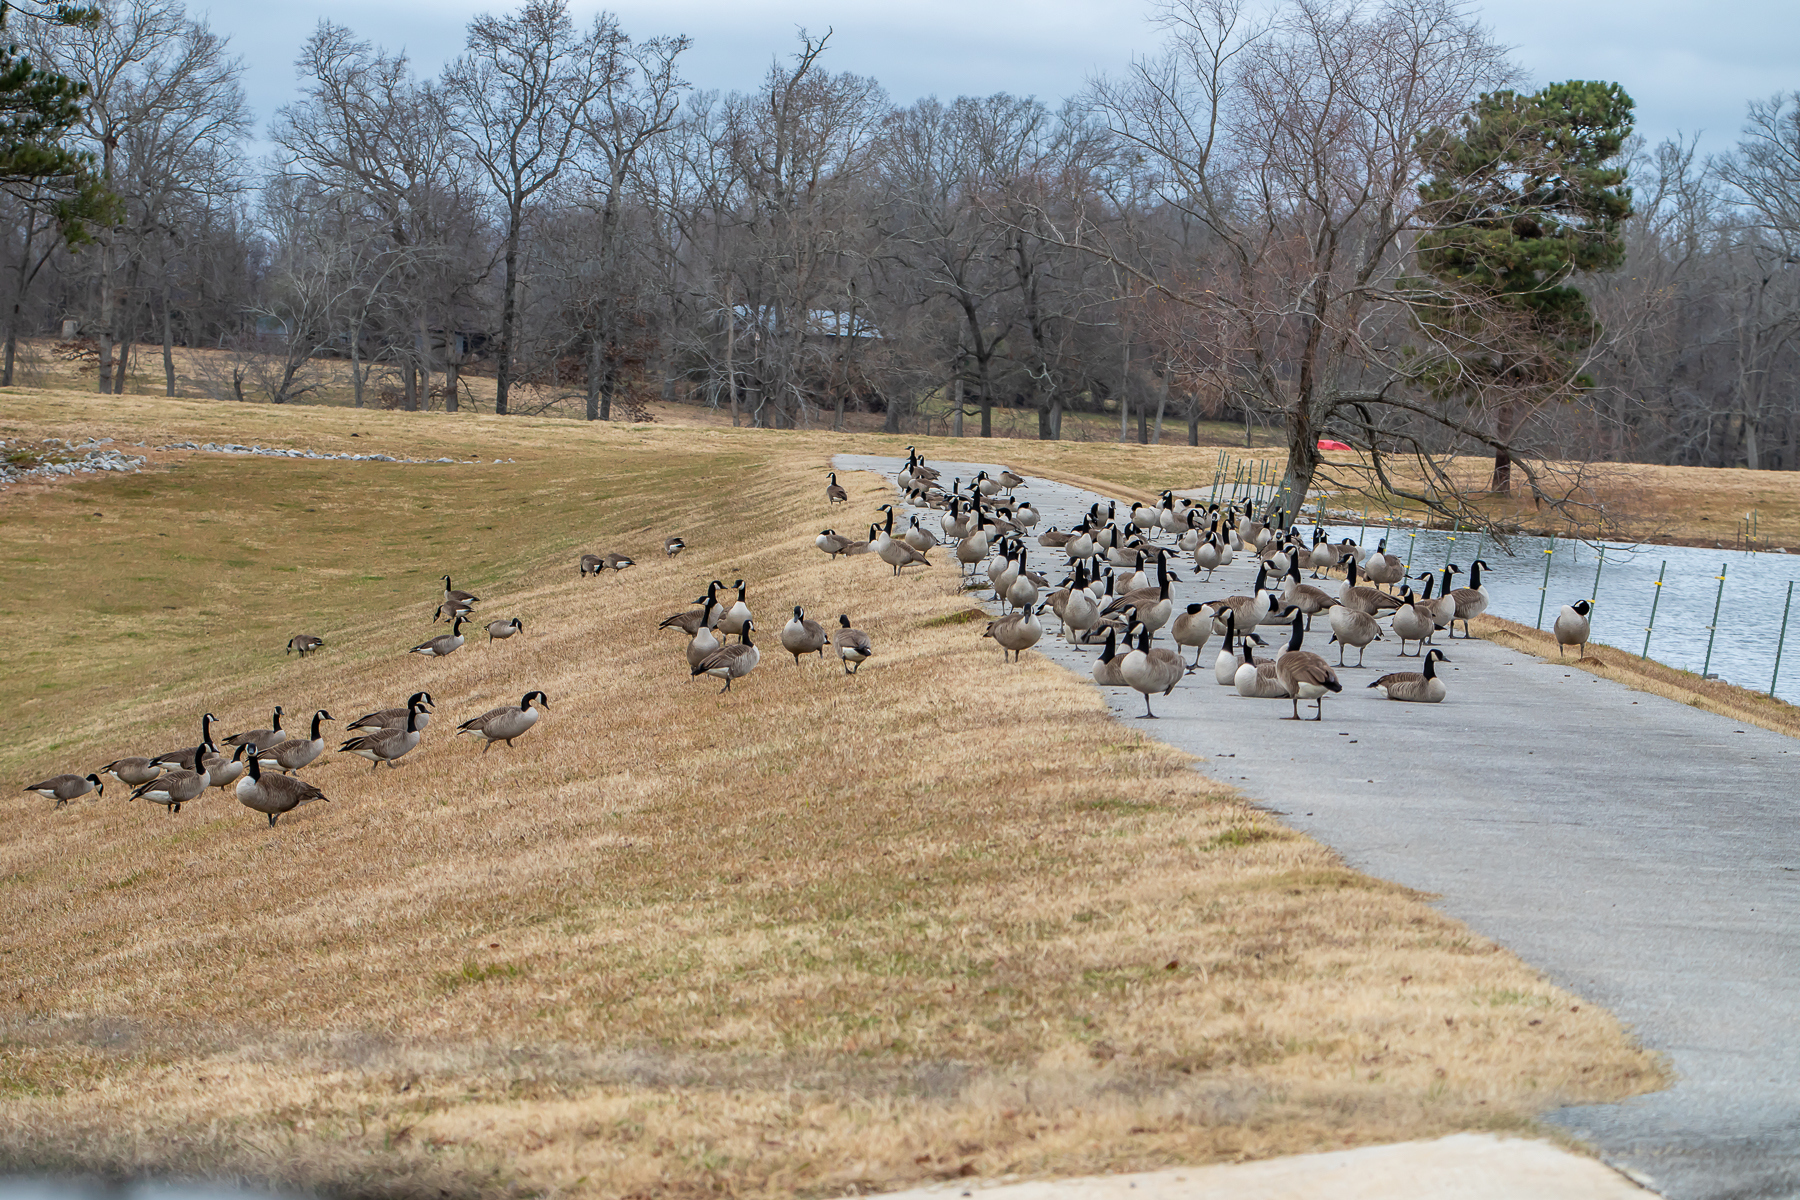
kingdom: Animalia
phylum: Chordata
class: Aves
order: Anseriformes
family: Anatidae
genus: Branta
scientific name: Branta canadensis
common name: Canada goose
